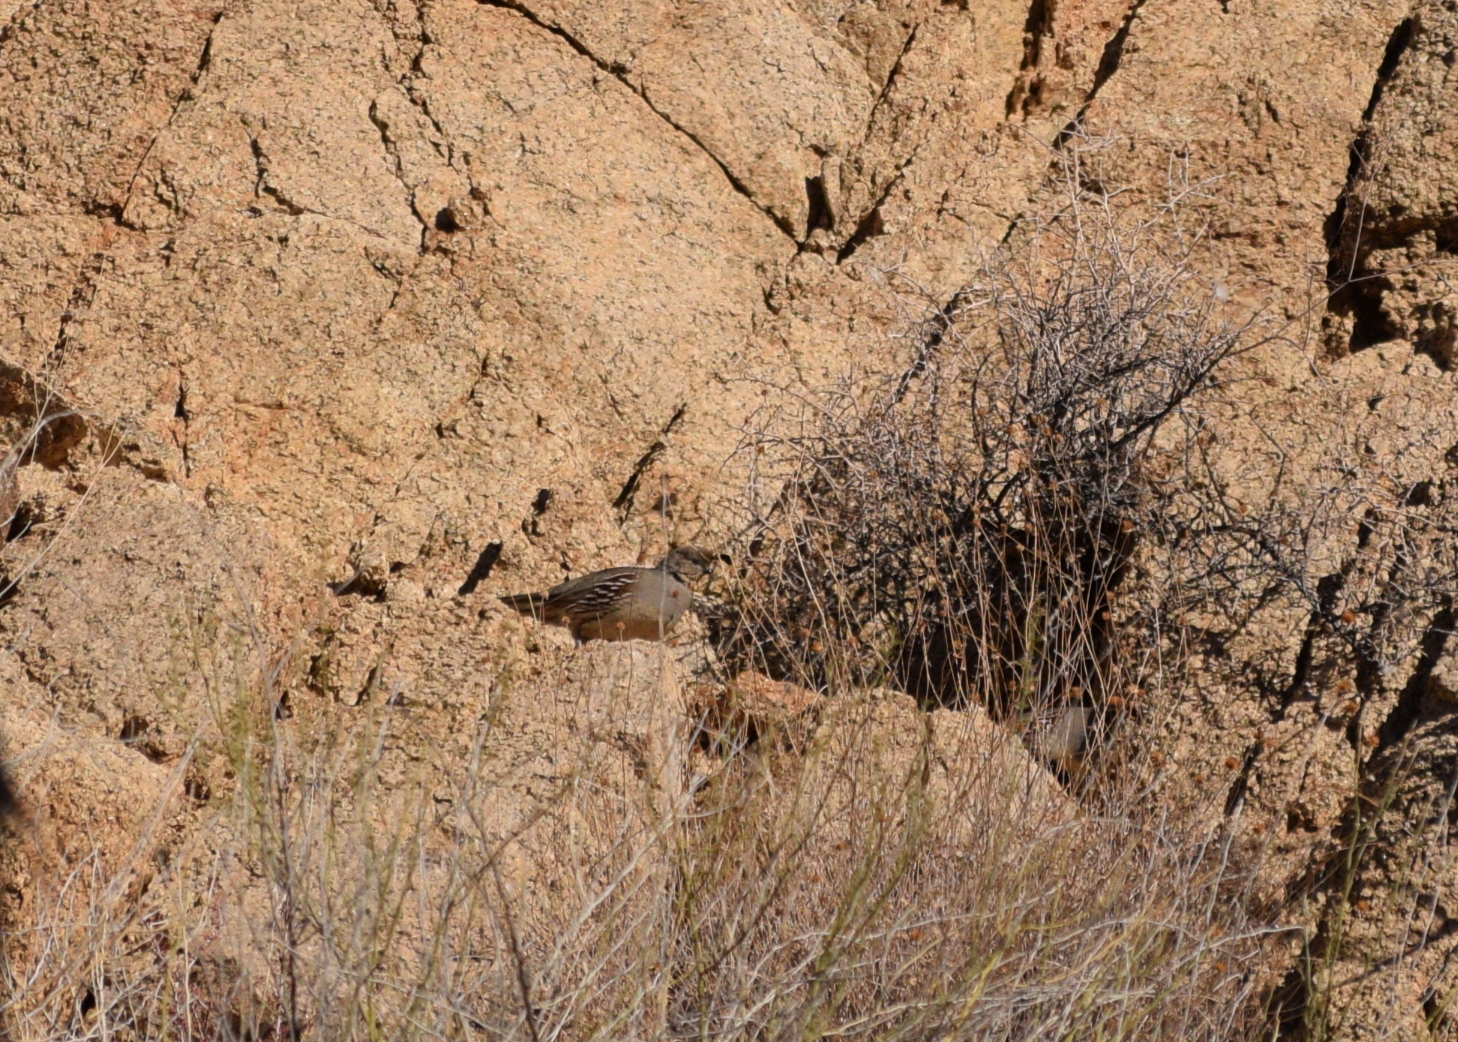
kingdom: Animalia
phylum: Chordata
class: Aves
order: Galliformes
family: Odontophoridae
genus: Callipepla
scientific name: Callipepla gambelii
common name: Gambel's quail
